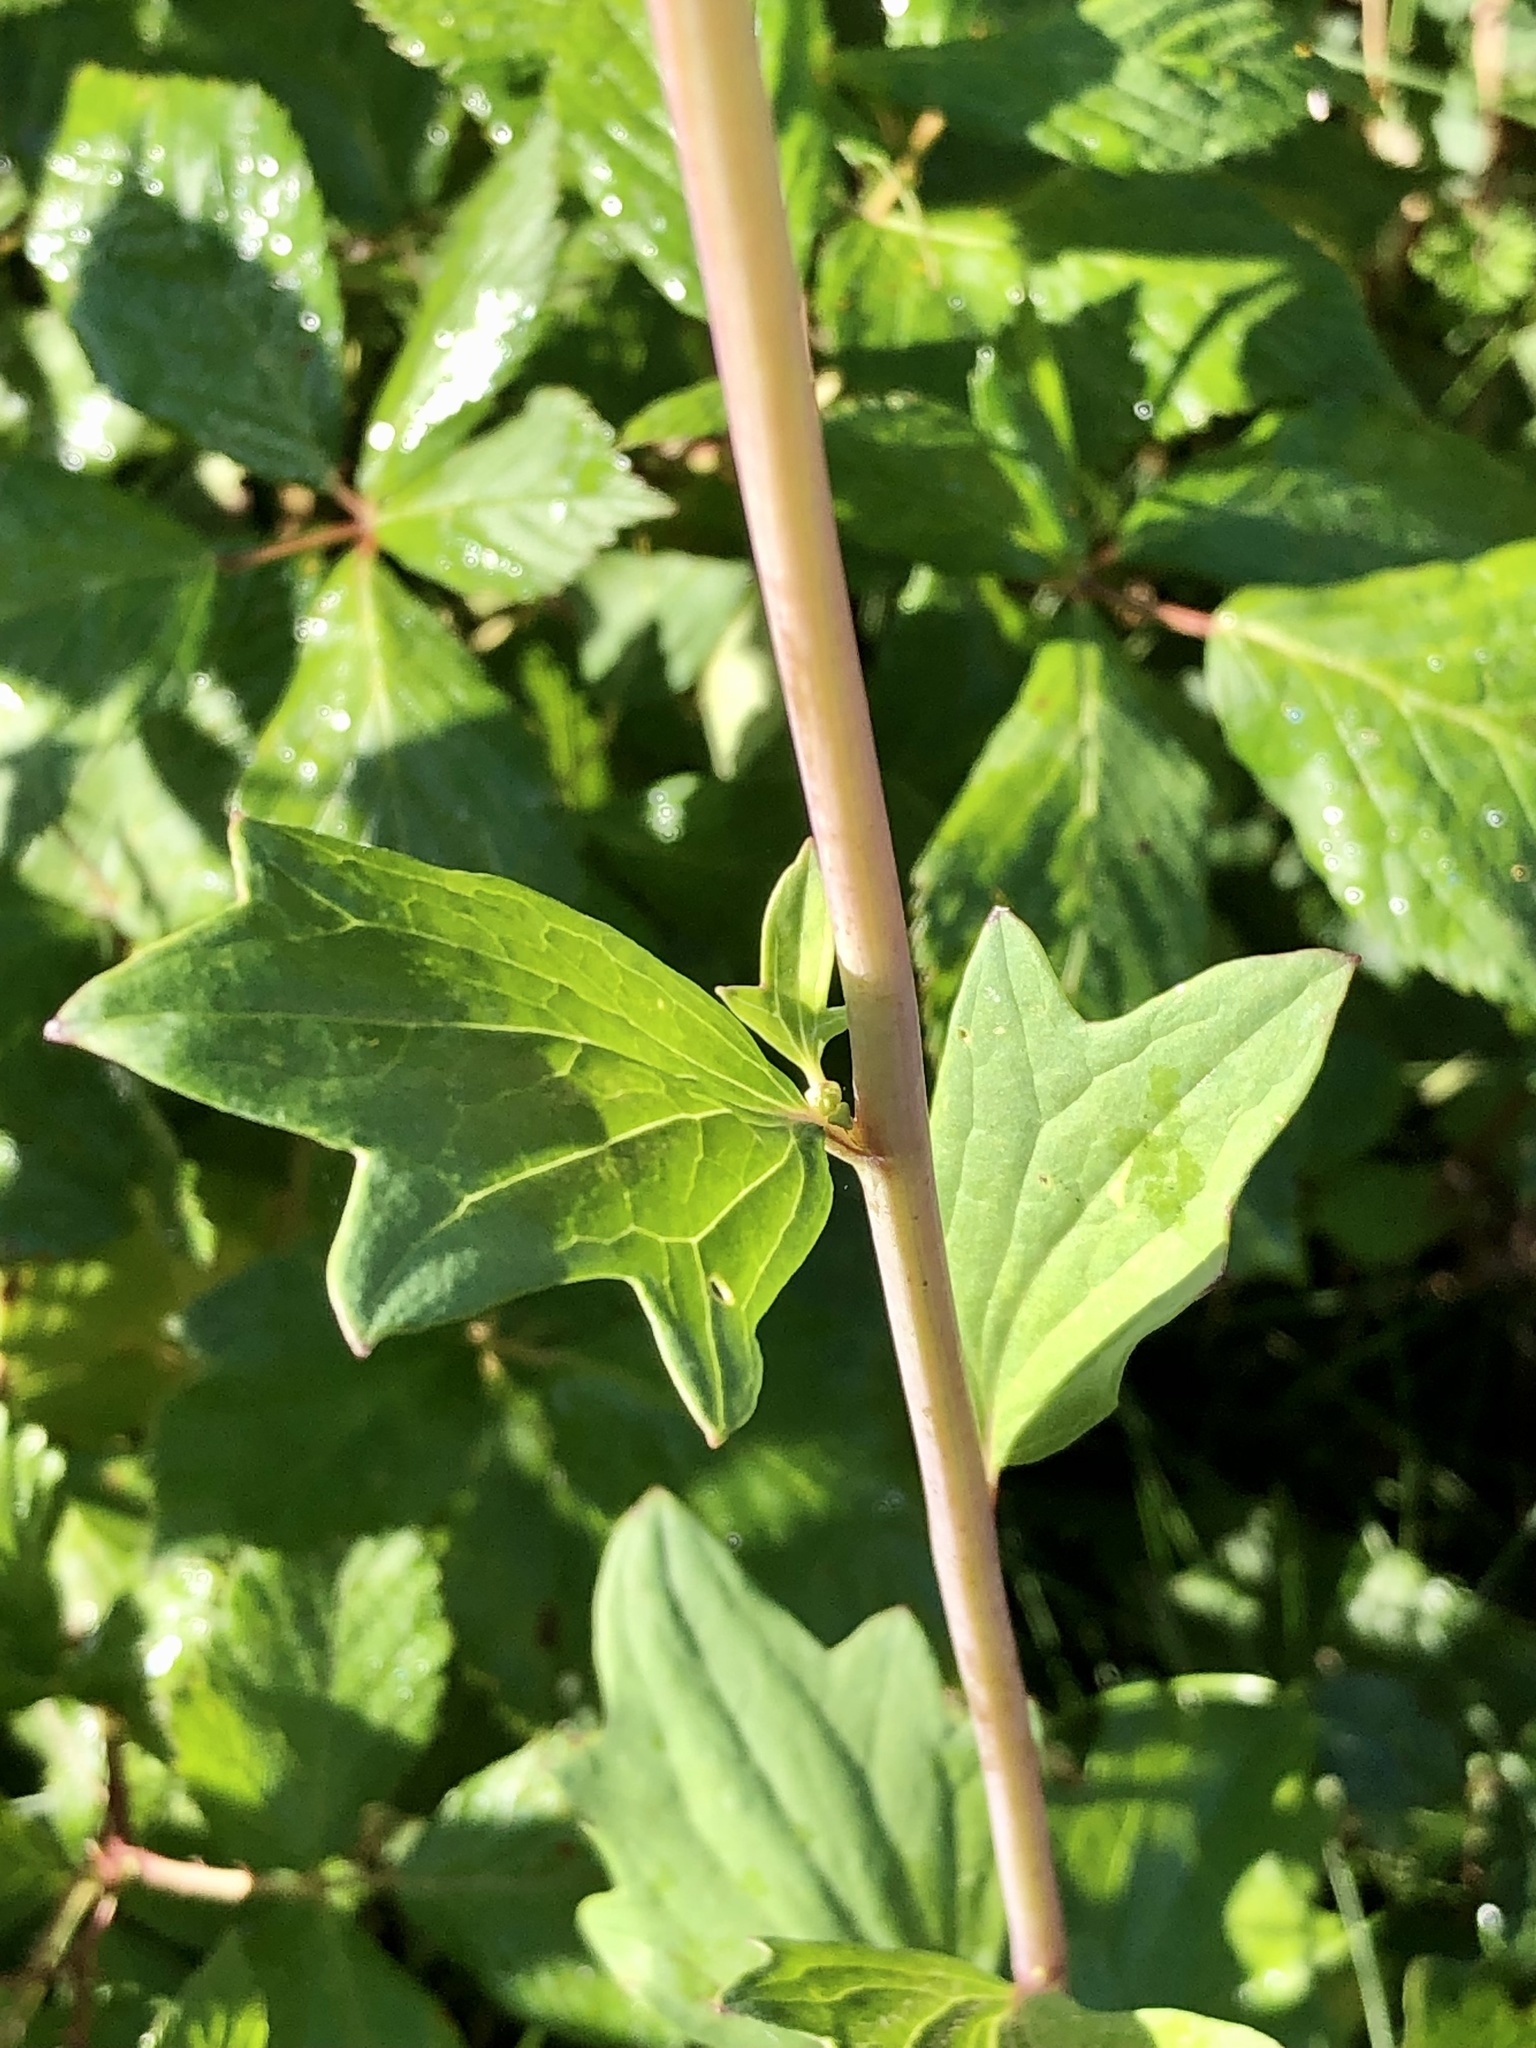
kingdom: Plantae
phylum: Tracheophyta
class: Magnoliopsida
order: Asterales
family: Asteraceae
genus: Arnoglossum
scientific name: Arnoglossum atriplicifolium
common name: Pale indian-plantain
